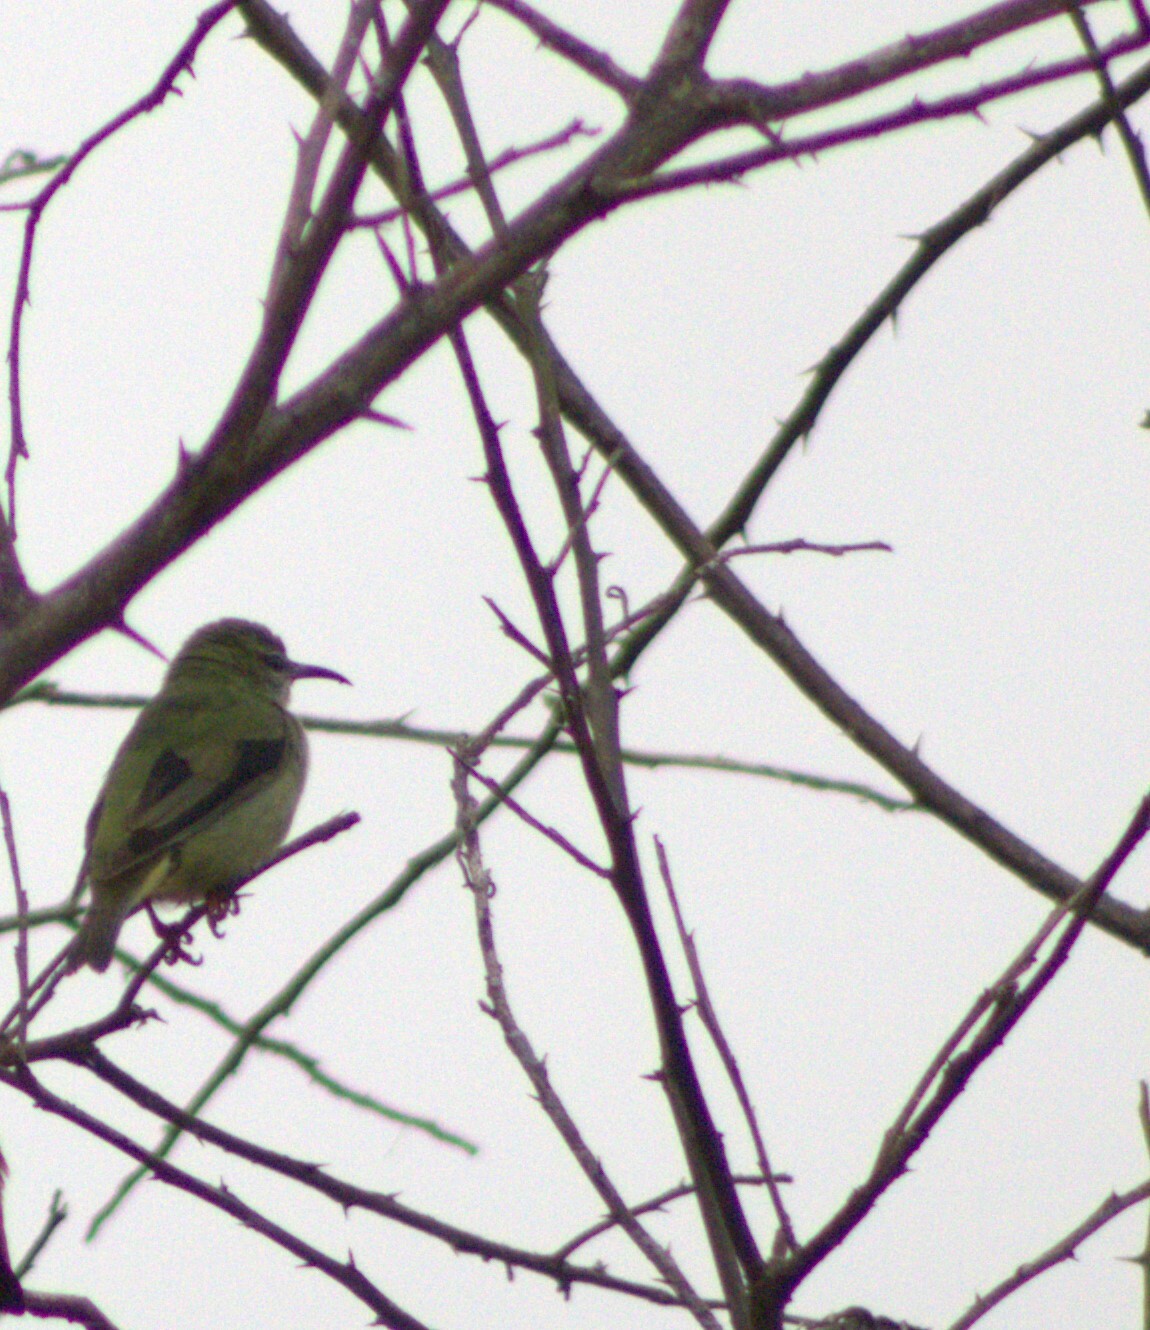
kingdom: Animalia
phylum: Chordata
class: Aves
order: Passeriformes
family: Thraupidae
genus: Cyanerpes
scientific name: Cyanerpes cyaneus
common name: Red-legged honeycreeper
